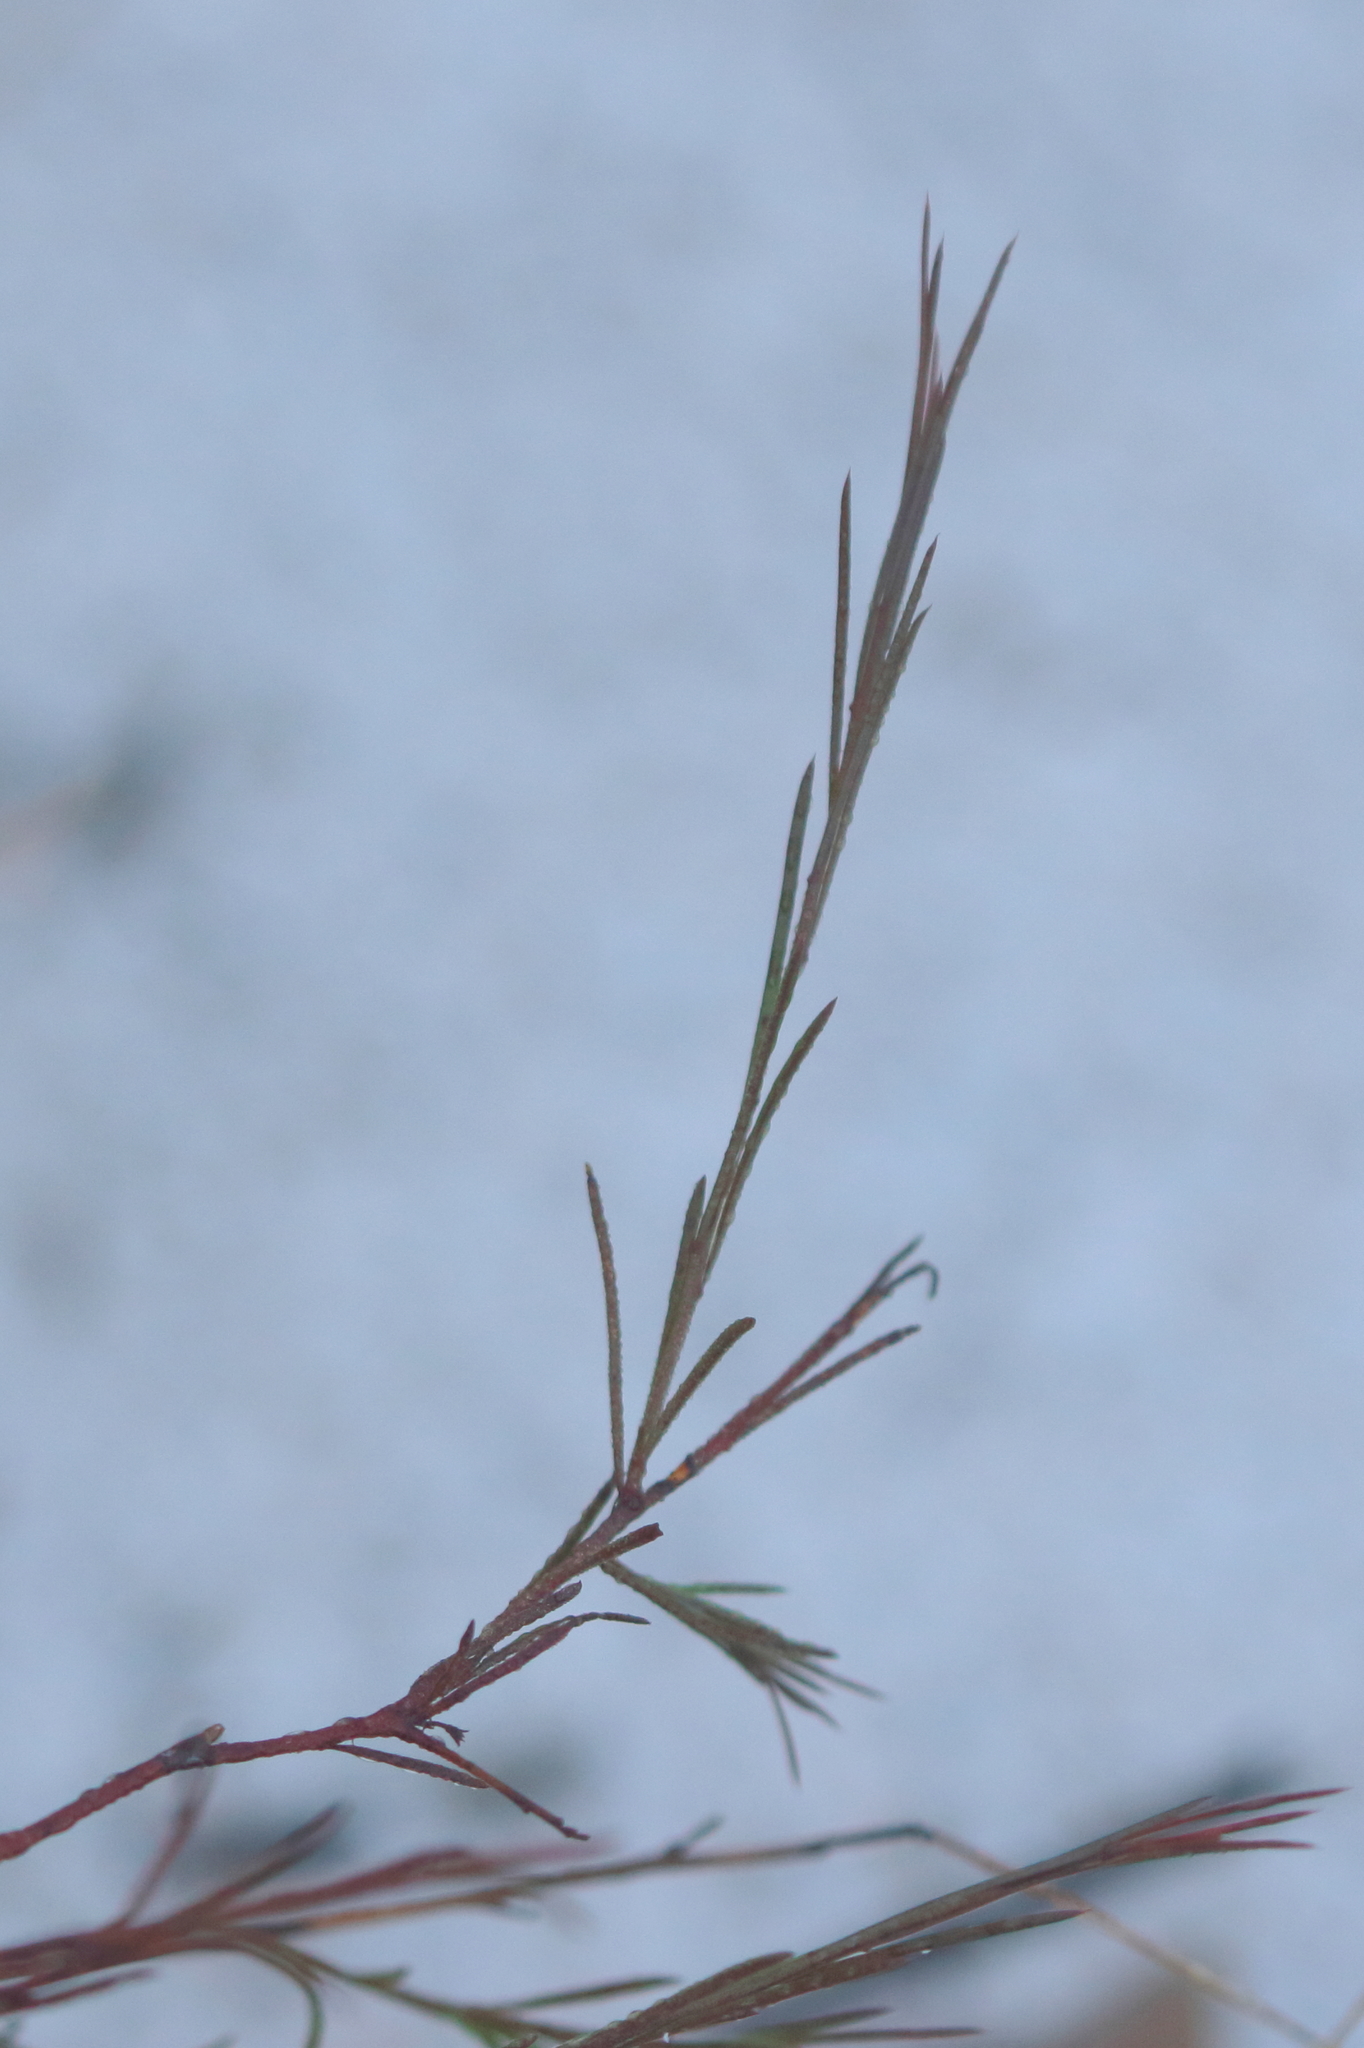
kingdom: Plantae
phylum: Tracheophyta
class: Magnoliopsida
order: Apiales
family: Apiaceae
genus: Platysace
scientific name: Platysace linearifolia
